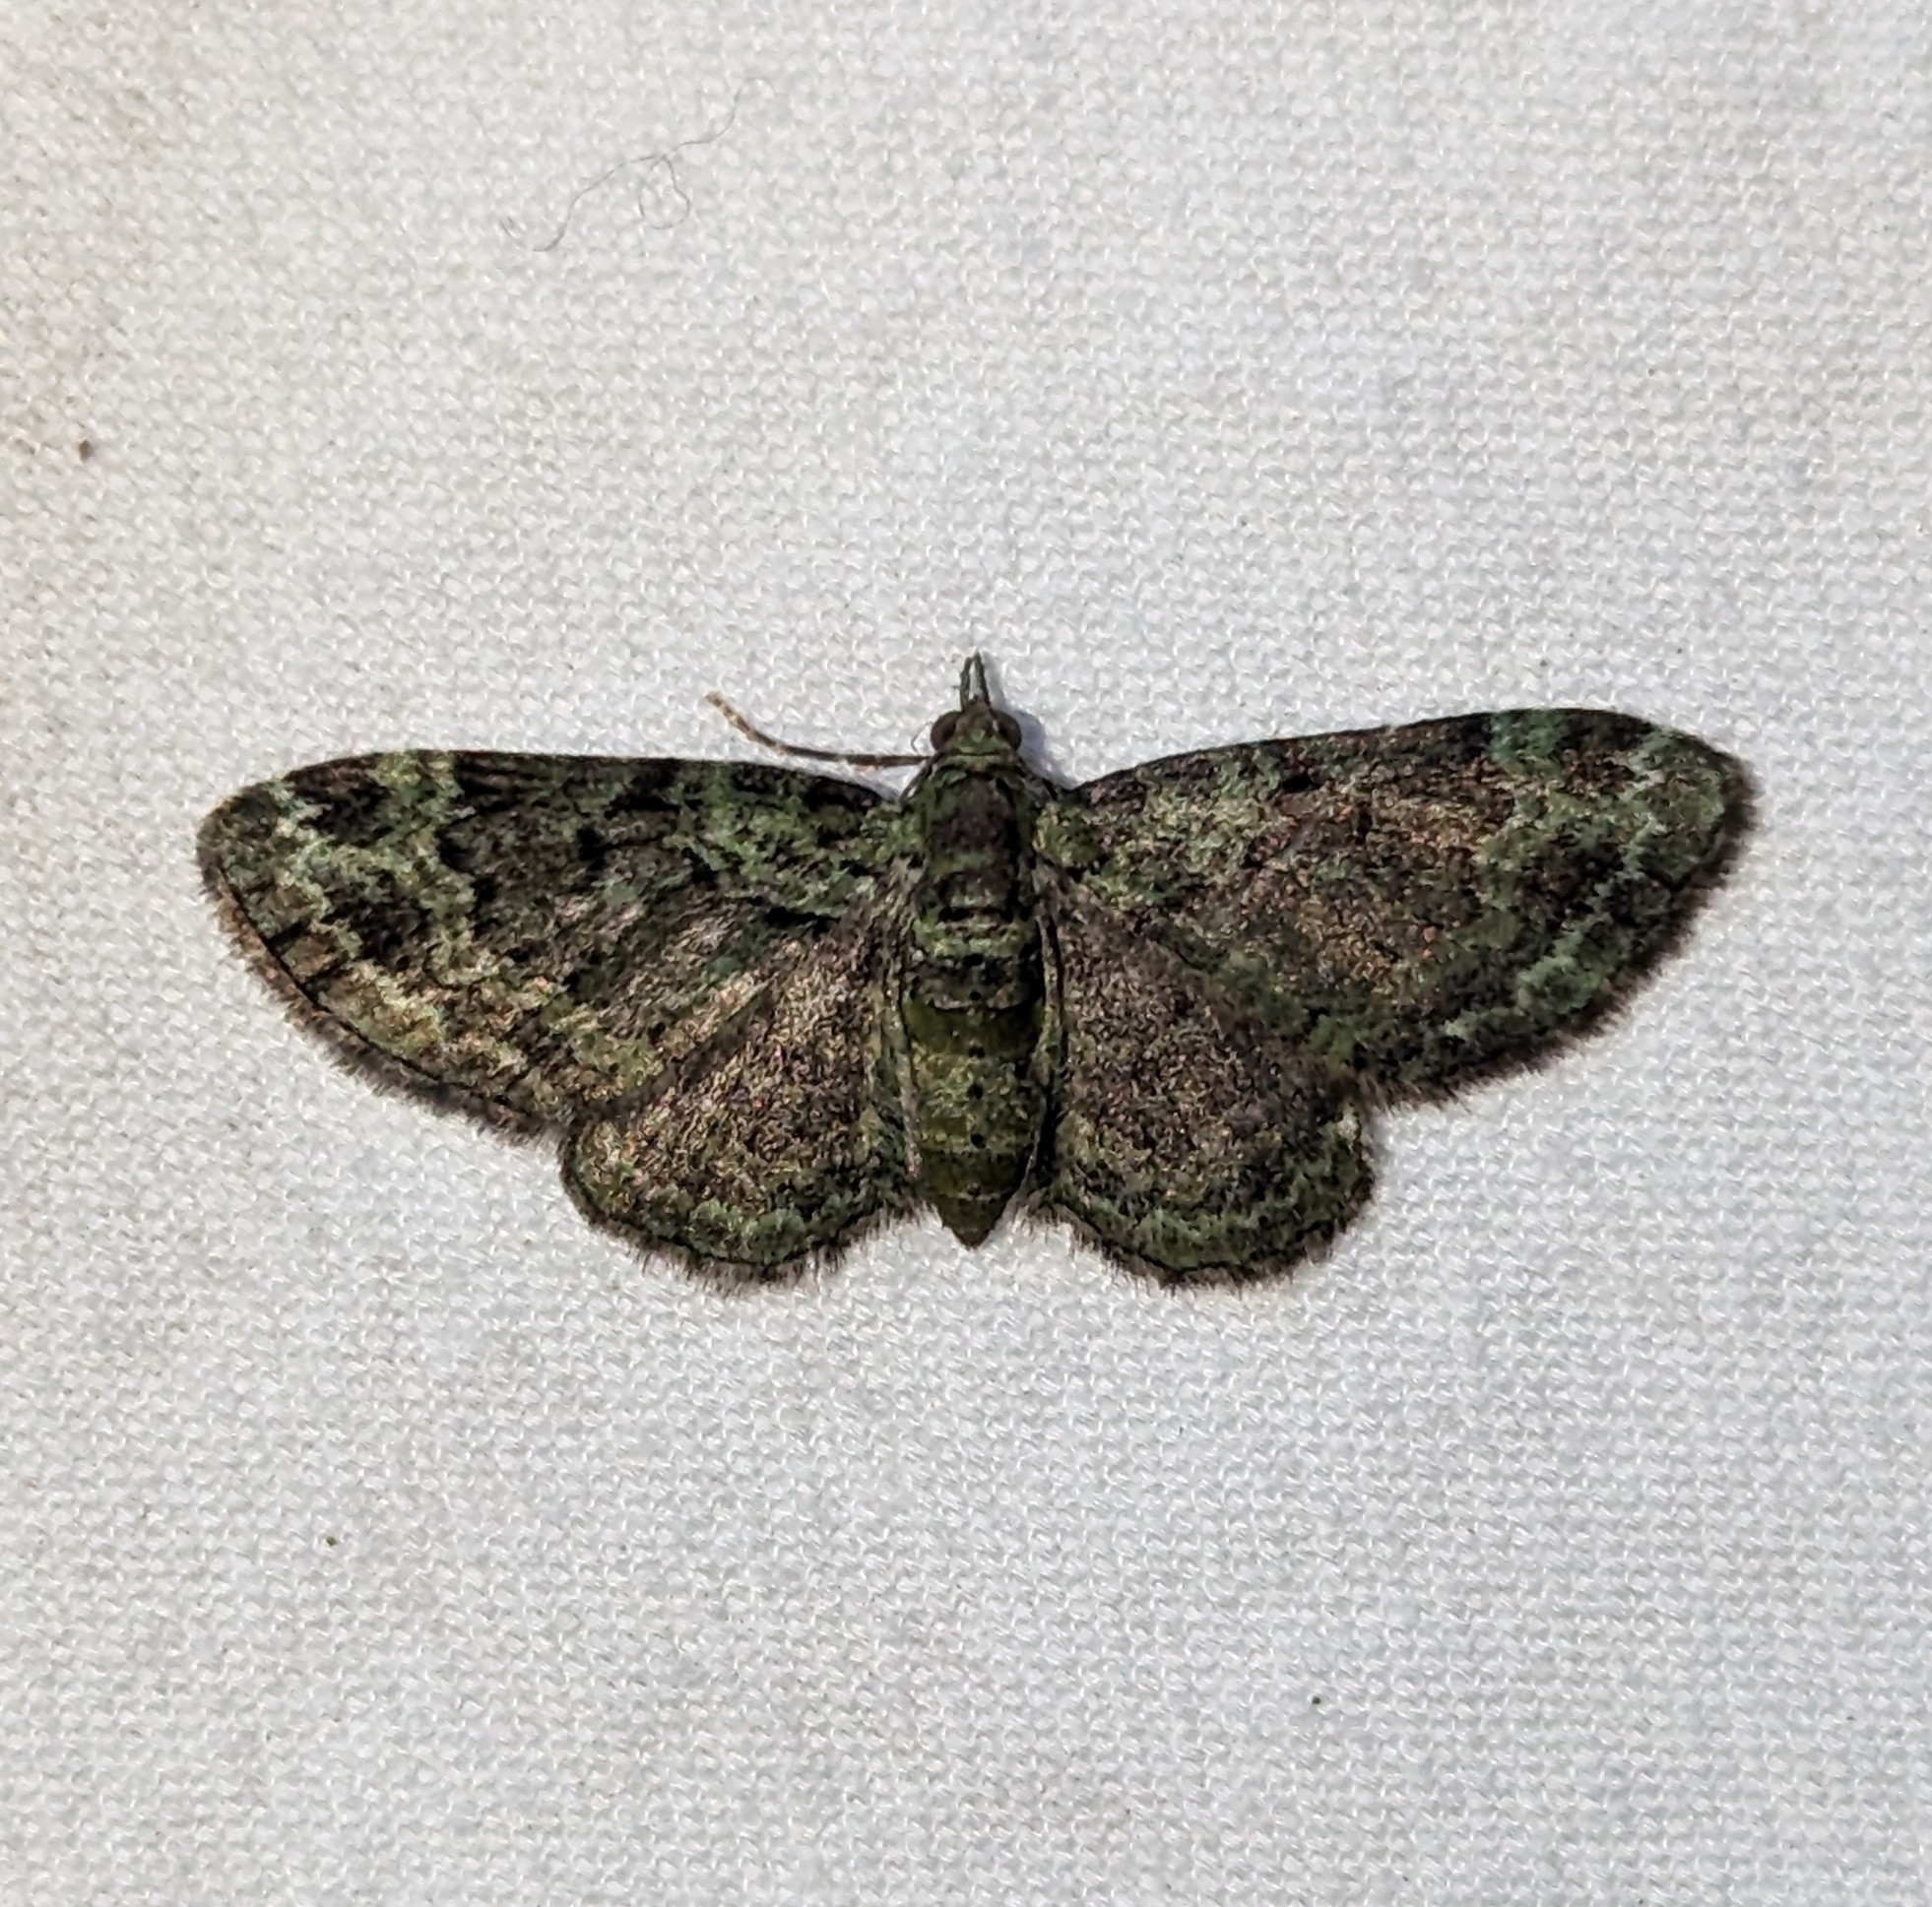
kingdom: Animalia
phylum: Arthropoda
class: Insecta
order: Lepidoptera
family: Geometridae
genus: Pasiphila
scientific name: Pasiphila rectangulata
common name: Green pug
